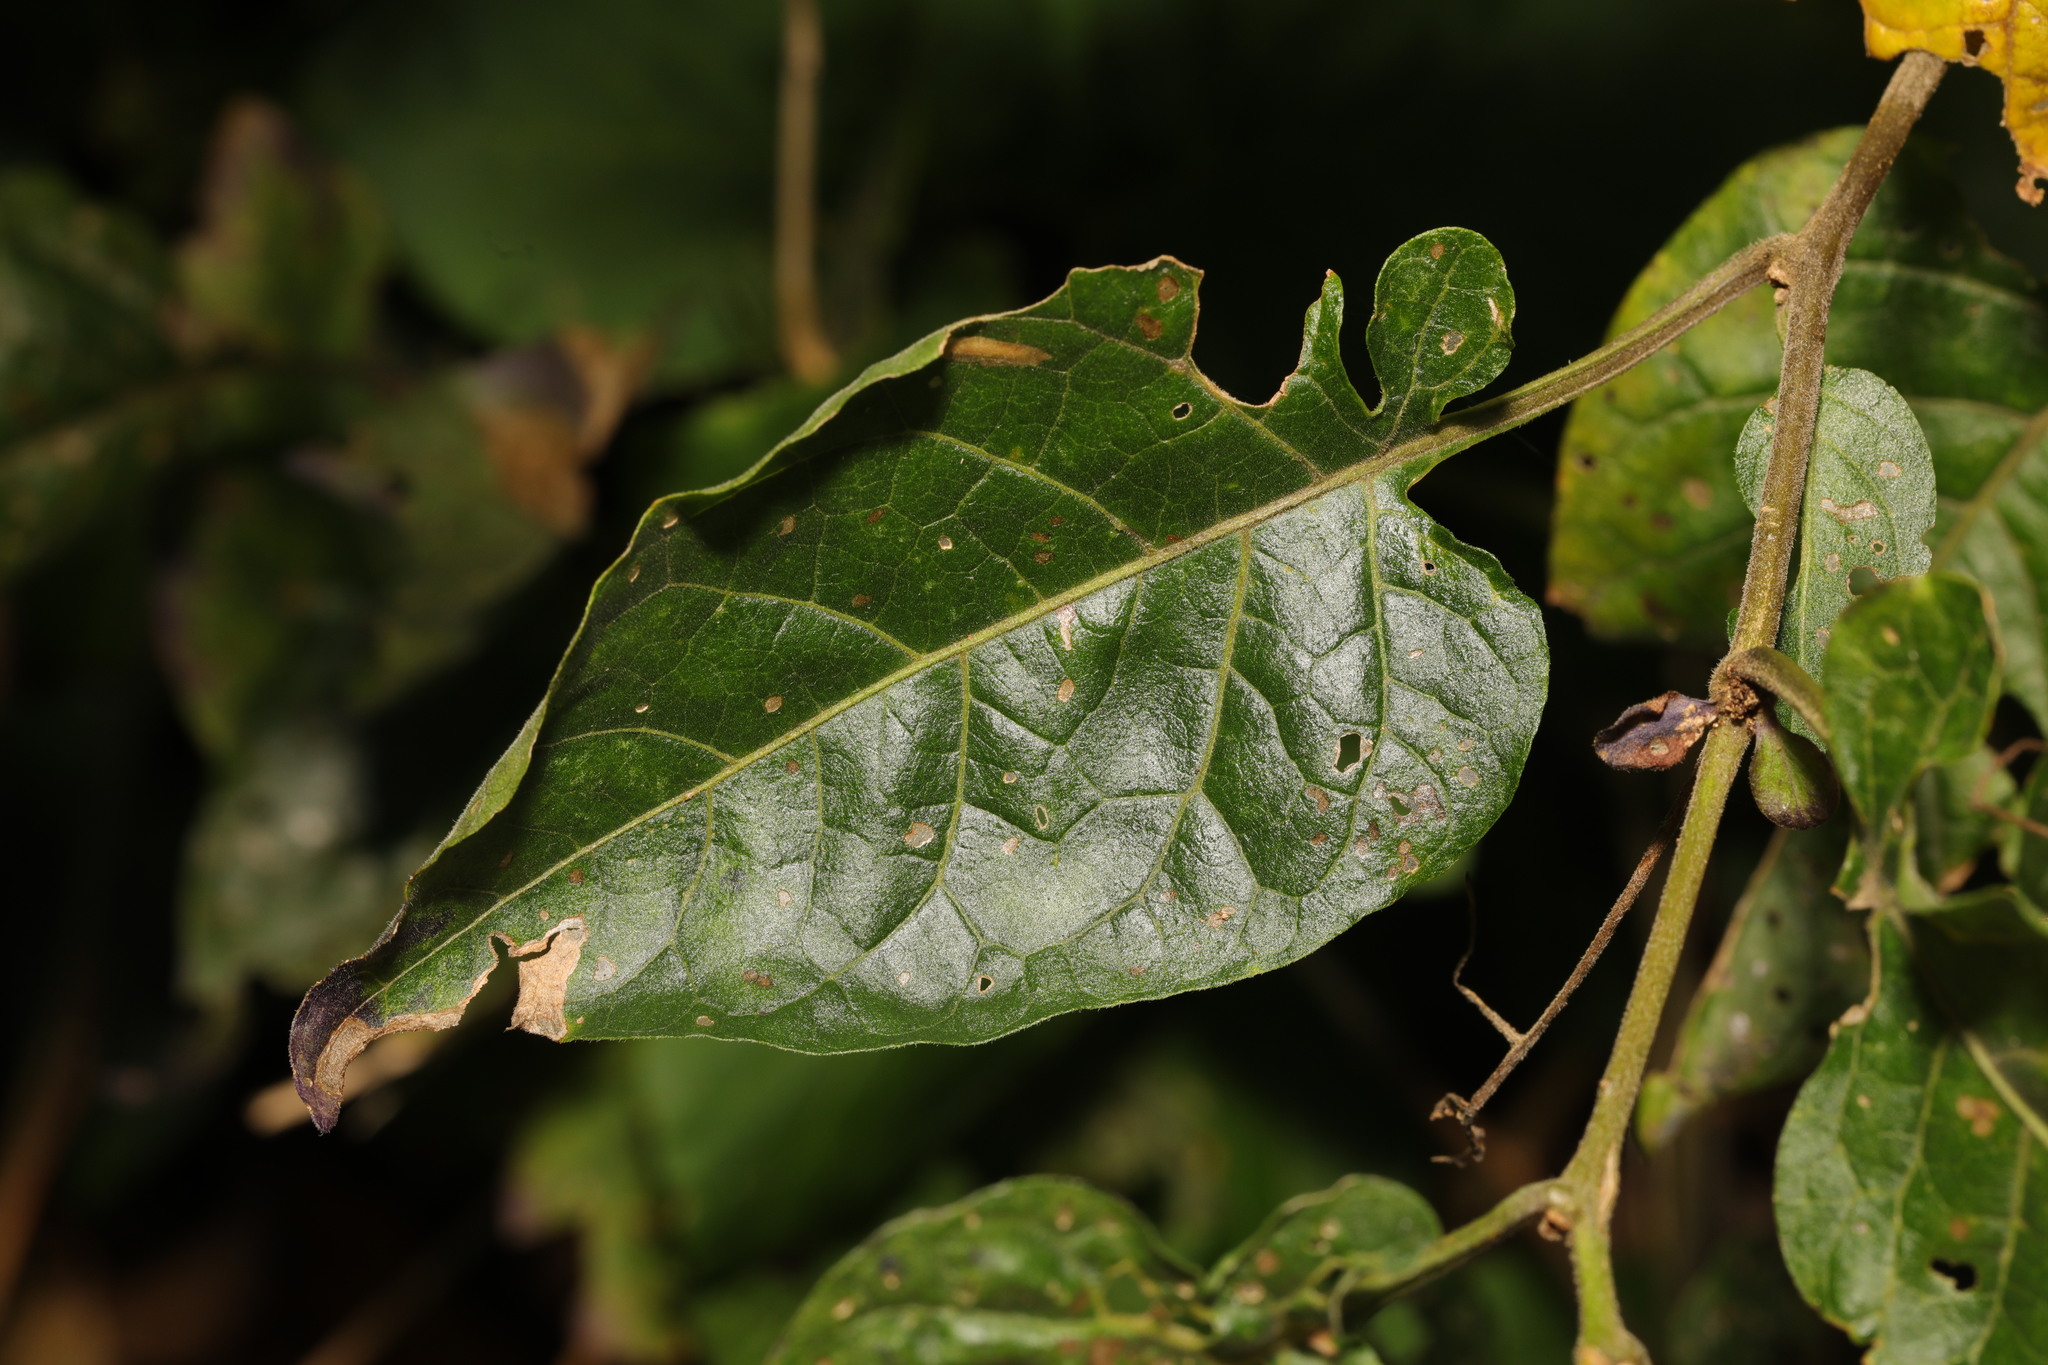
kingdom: Plantae
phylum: Tracheophyta
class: Magnoliopsida
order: Solanales
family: Solanaceae
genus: Solanum
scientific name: Solanum dulcamara
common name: Climbing nightshade
